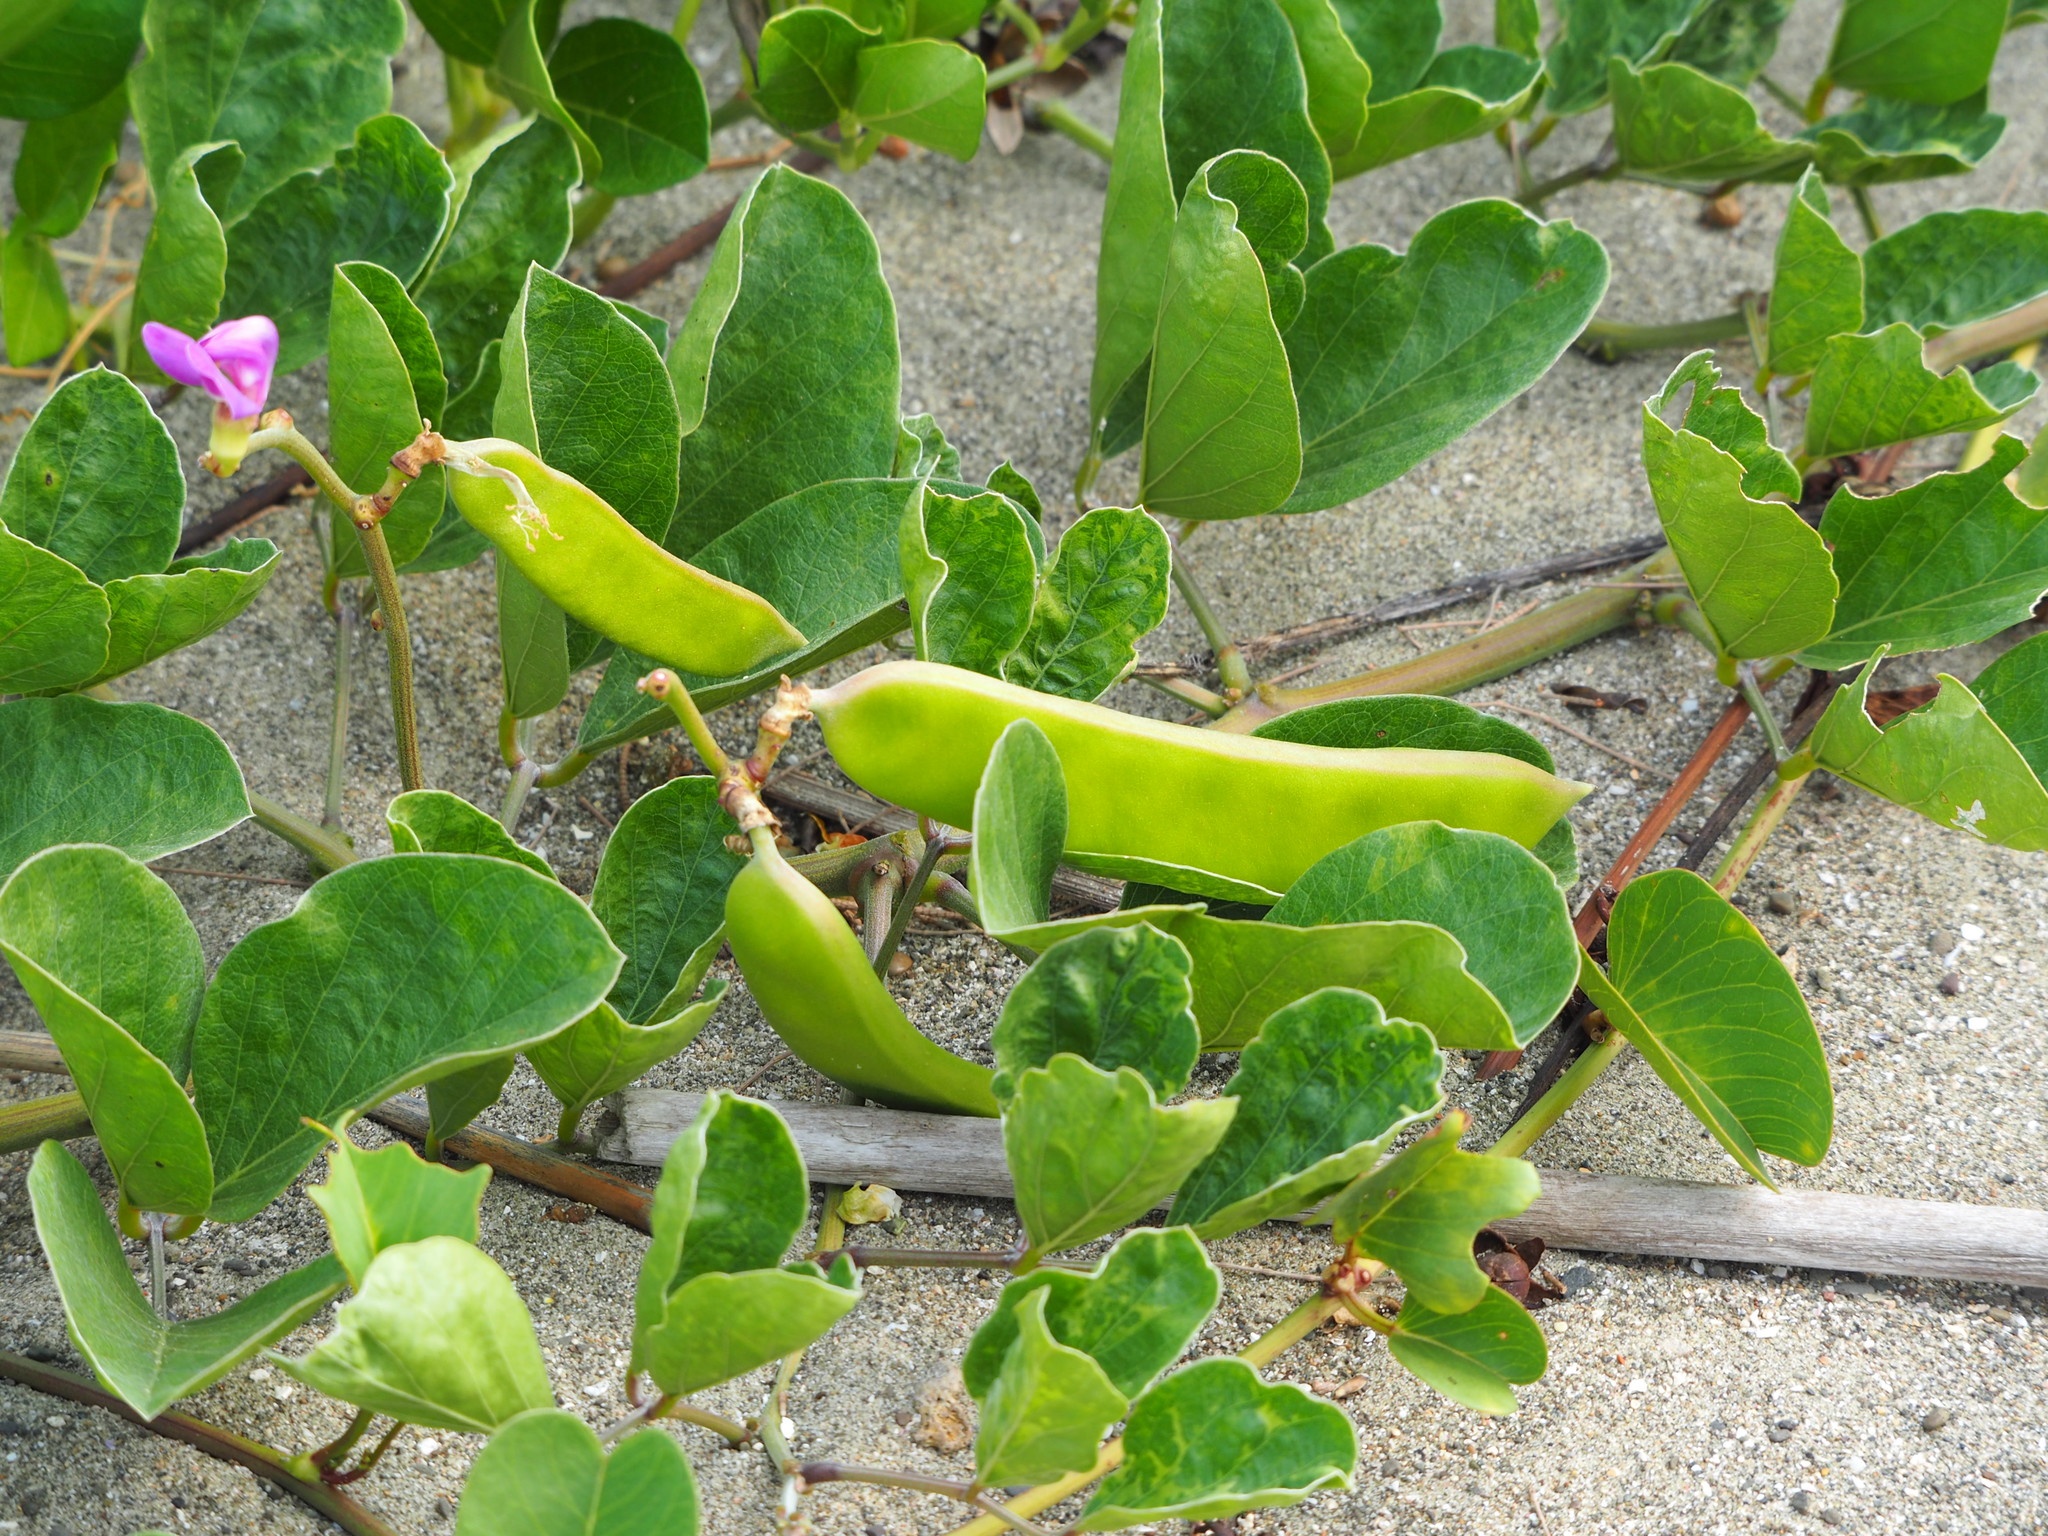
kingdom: Plantae
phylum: Tracheophyta
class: Magnoliopsida
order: Fabales
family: Fabaceae
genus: Canavalia
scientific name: Canavalia lineata
